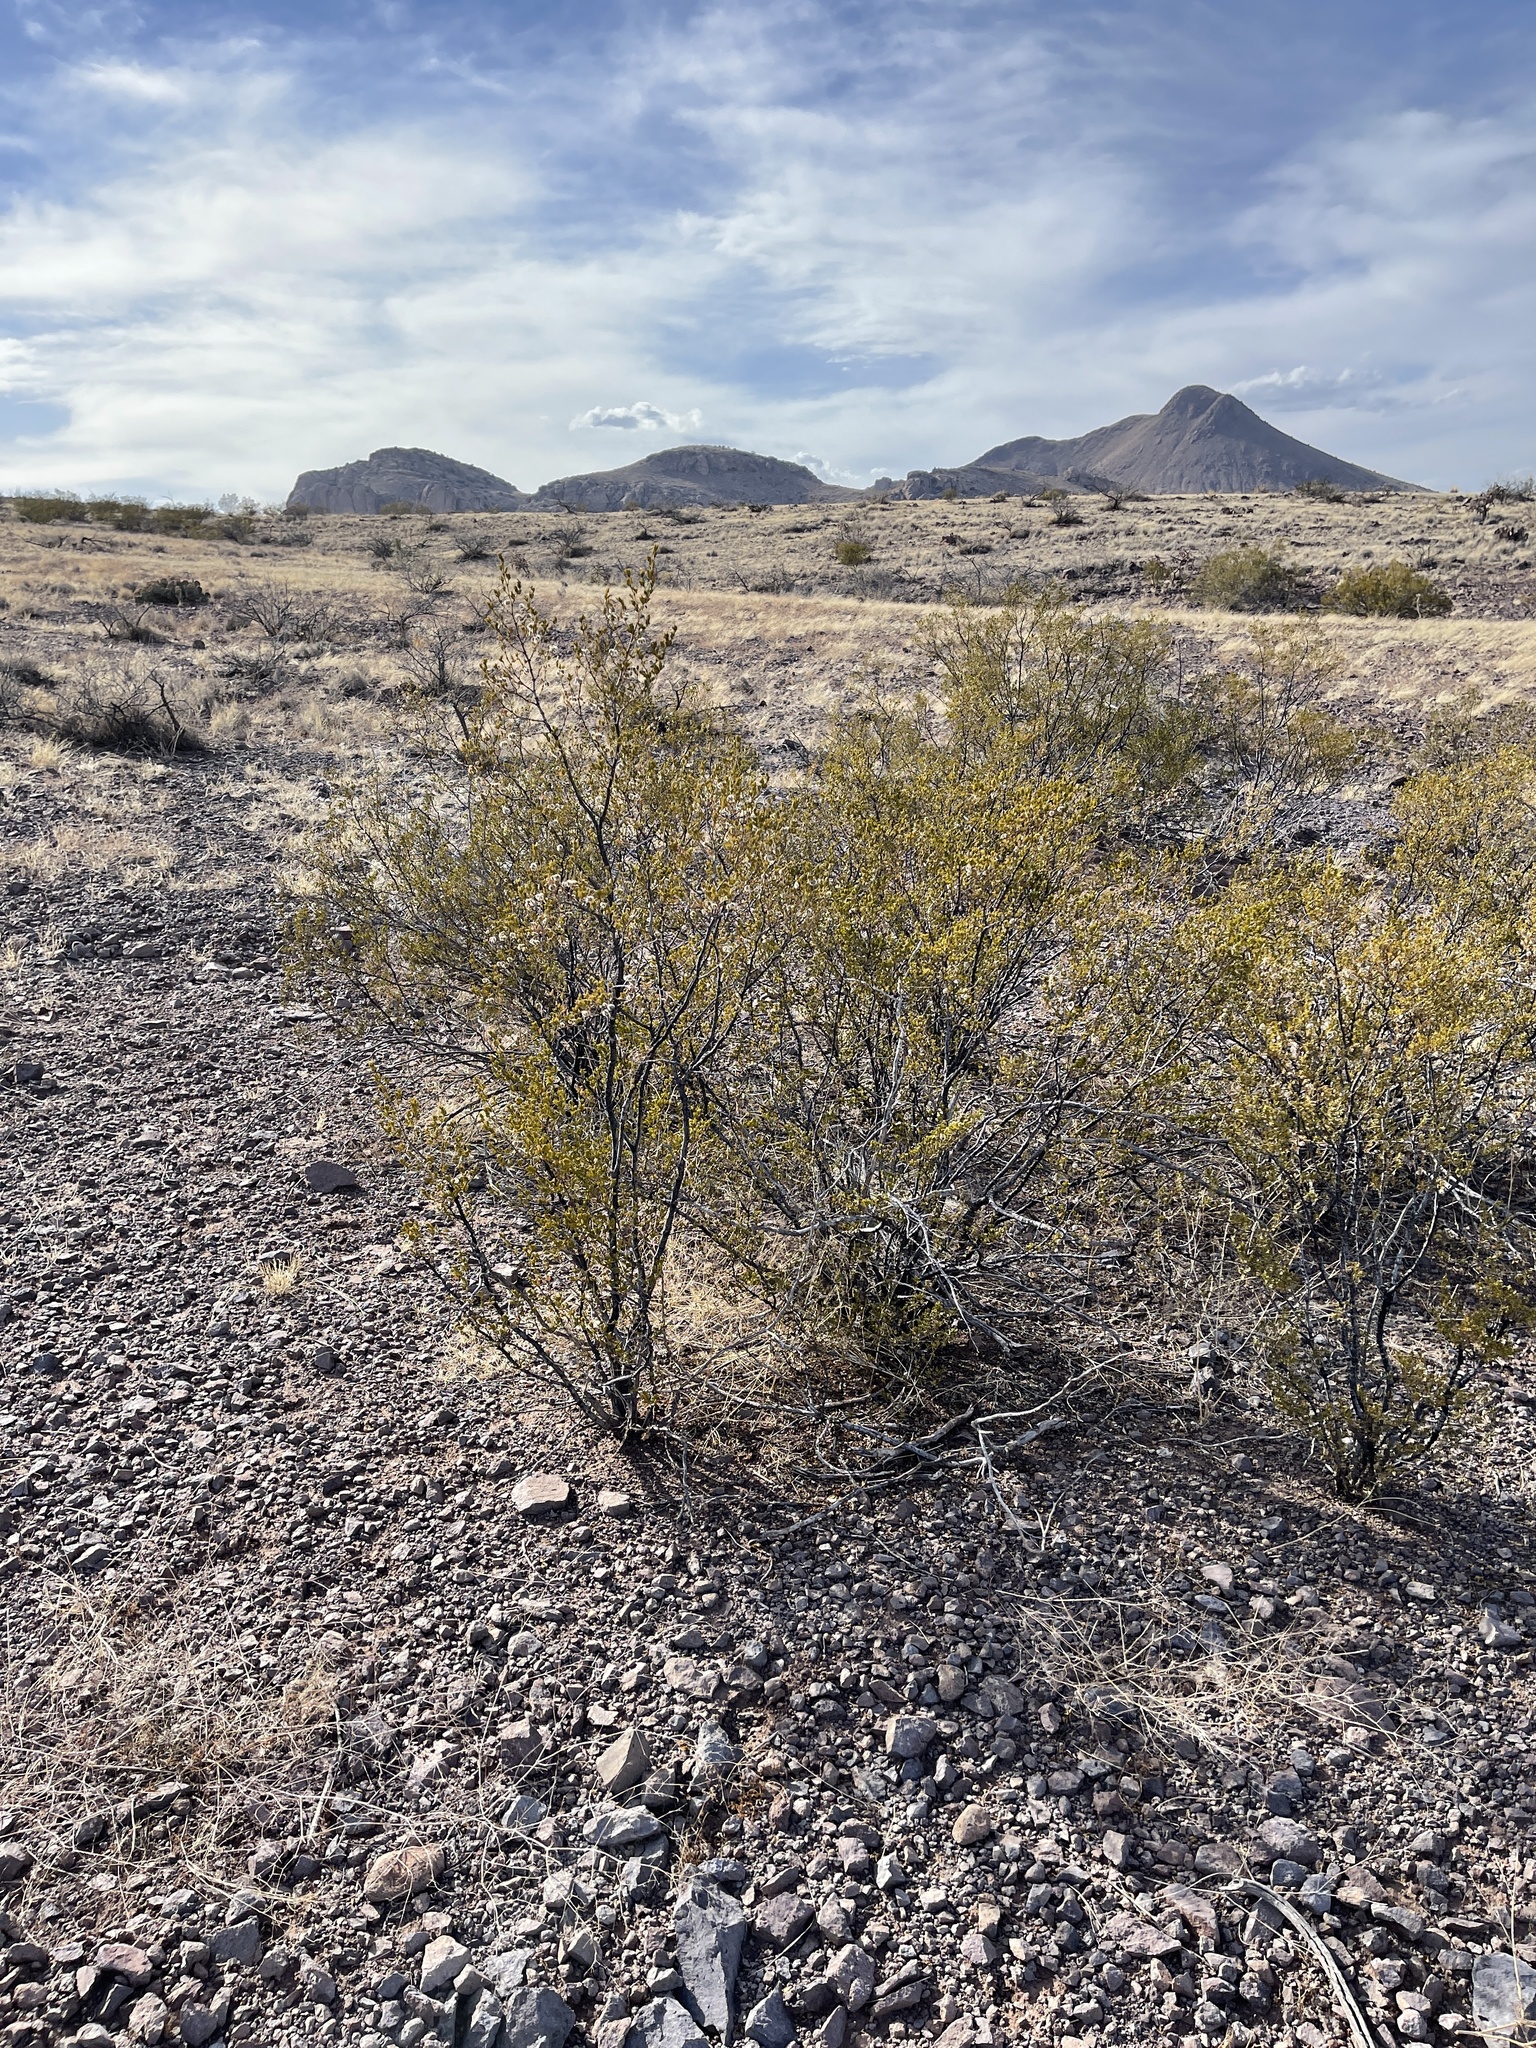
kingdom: Plantae
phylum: Tracheophyta
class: Magnoliopsida
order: Zygophyllales
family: Zygophyllaceae
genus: Larrea
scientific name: Larrea tridentata
